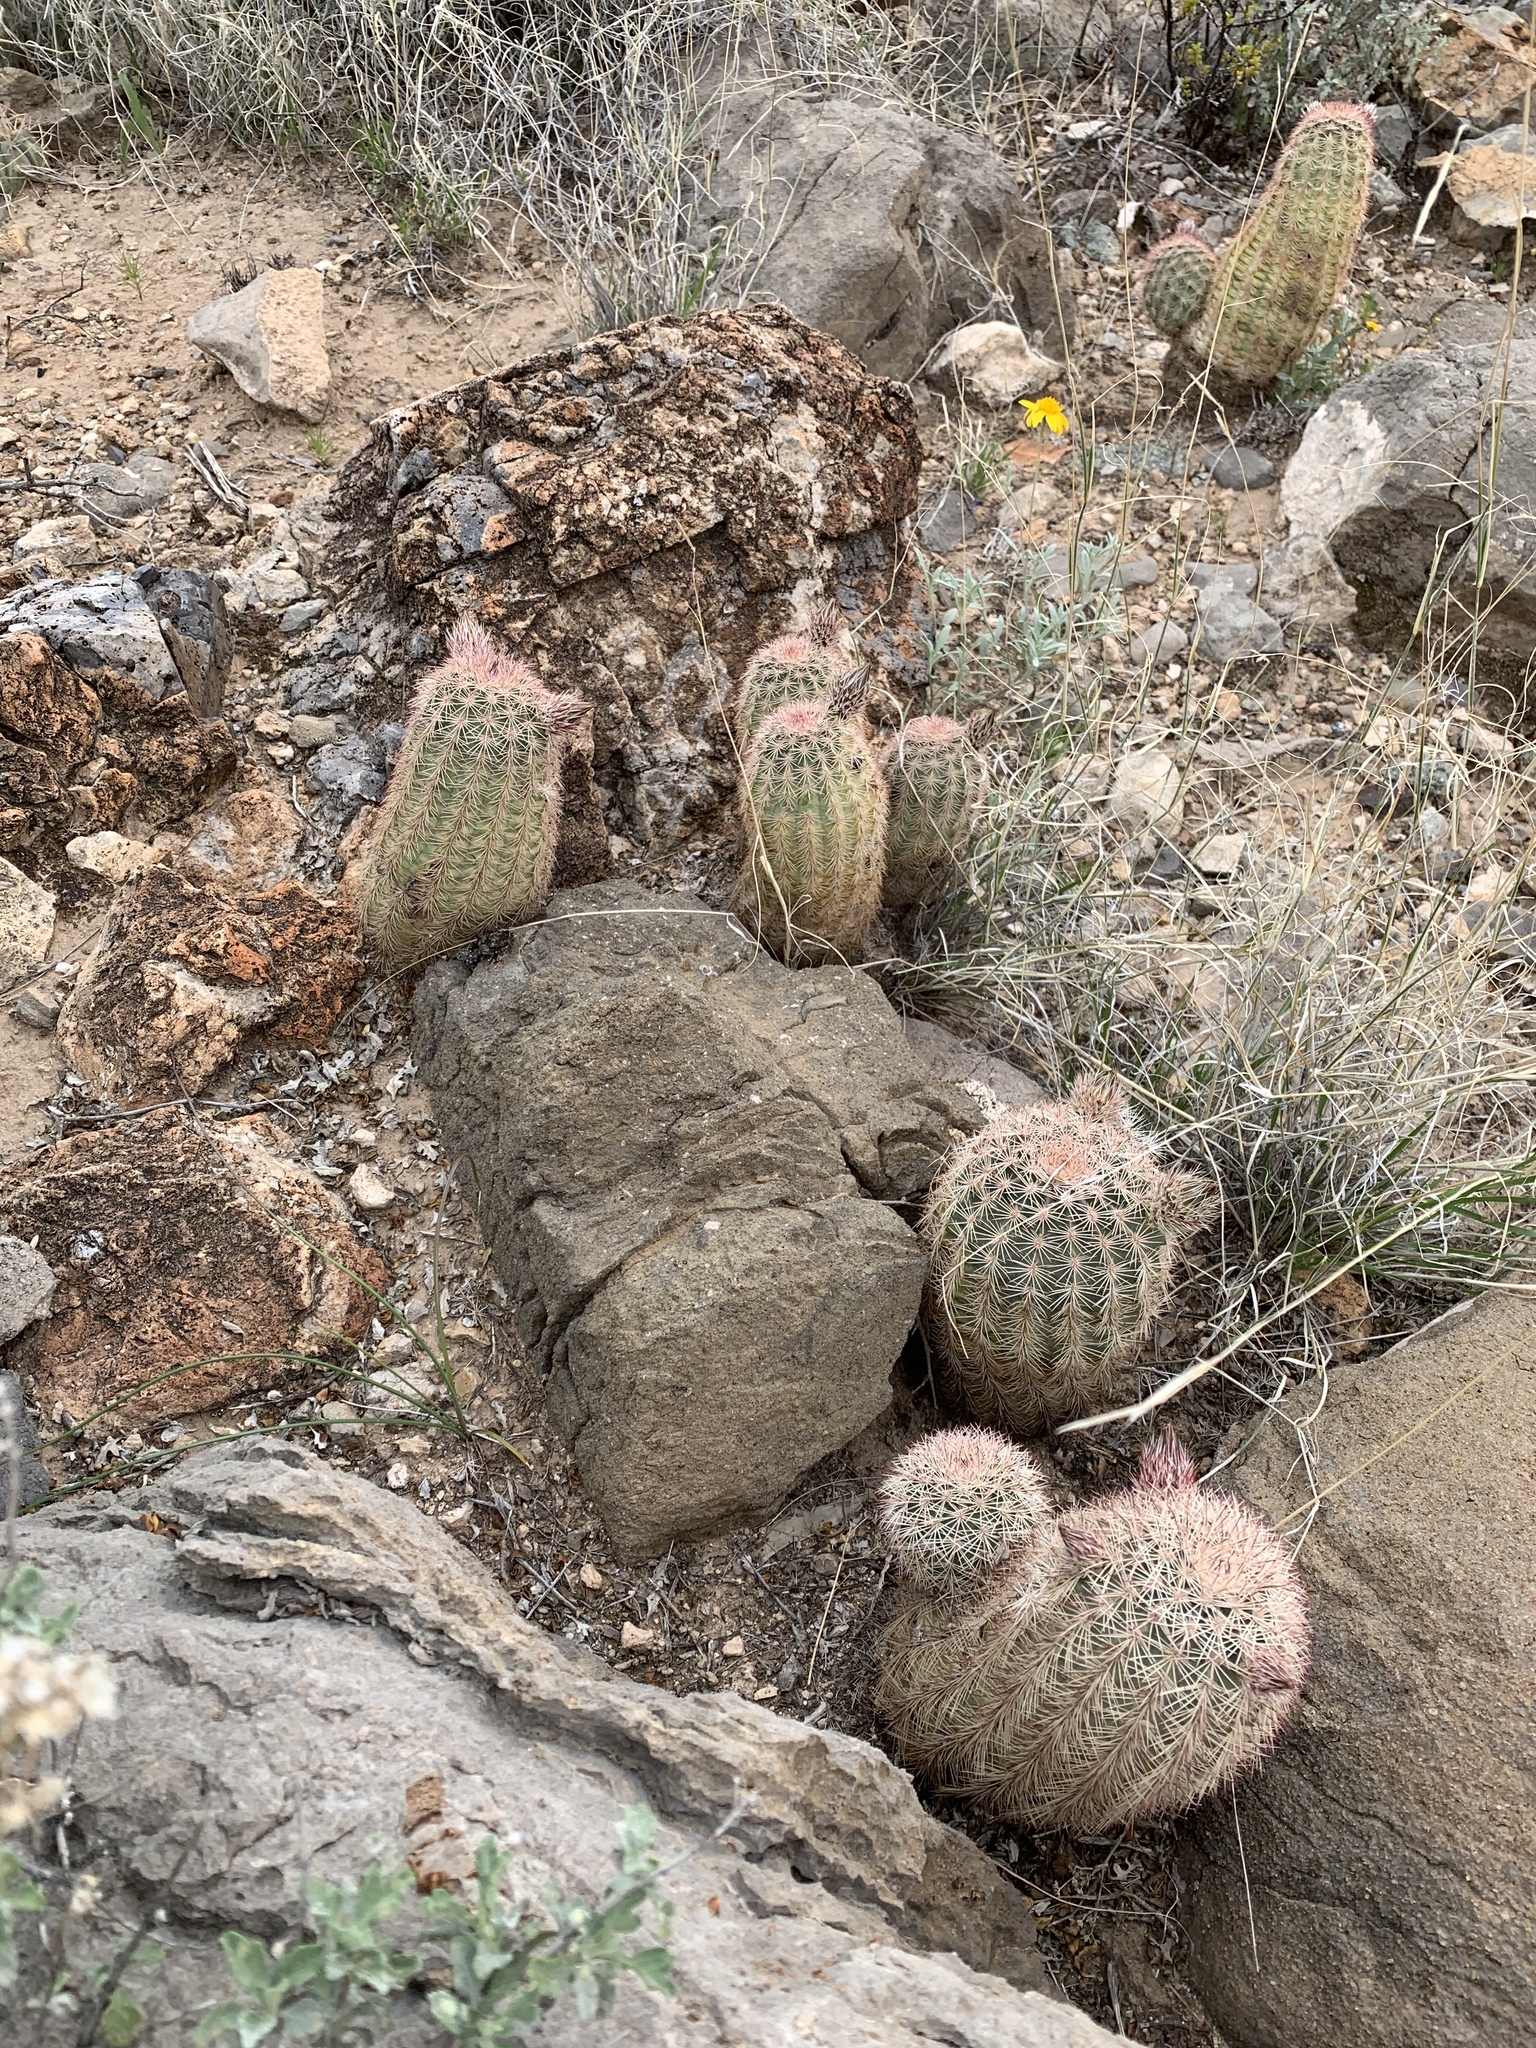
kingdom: Plantae
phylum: Tracheophyta
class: Magnoliopsida
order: Caryophyllales
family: Cactaceae
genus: Echinocereus
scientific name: Echinocereus dasyacanthus
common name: Spiny hedgehog cactus
